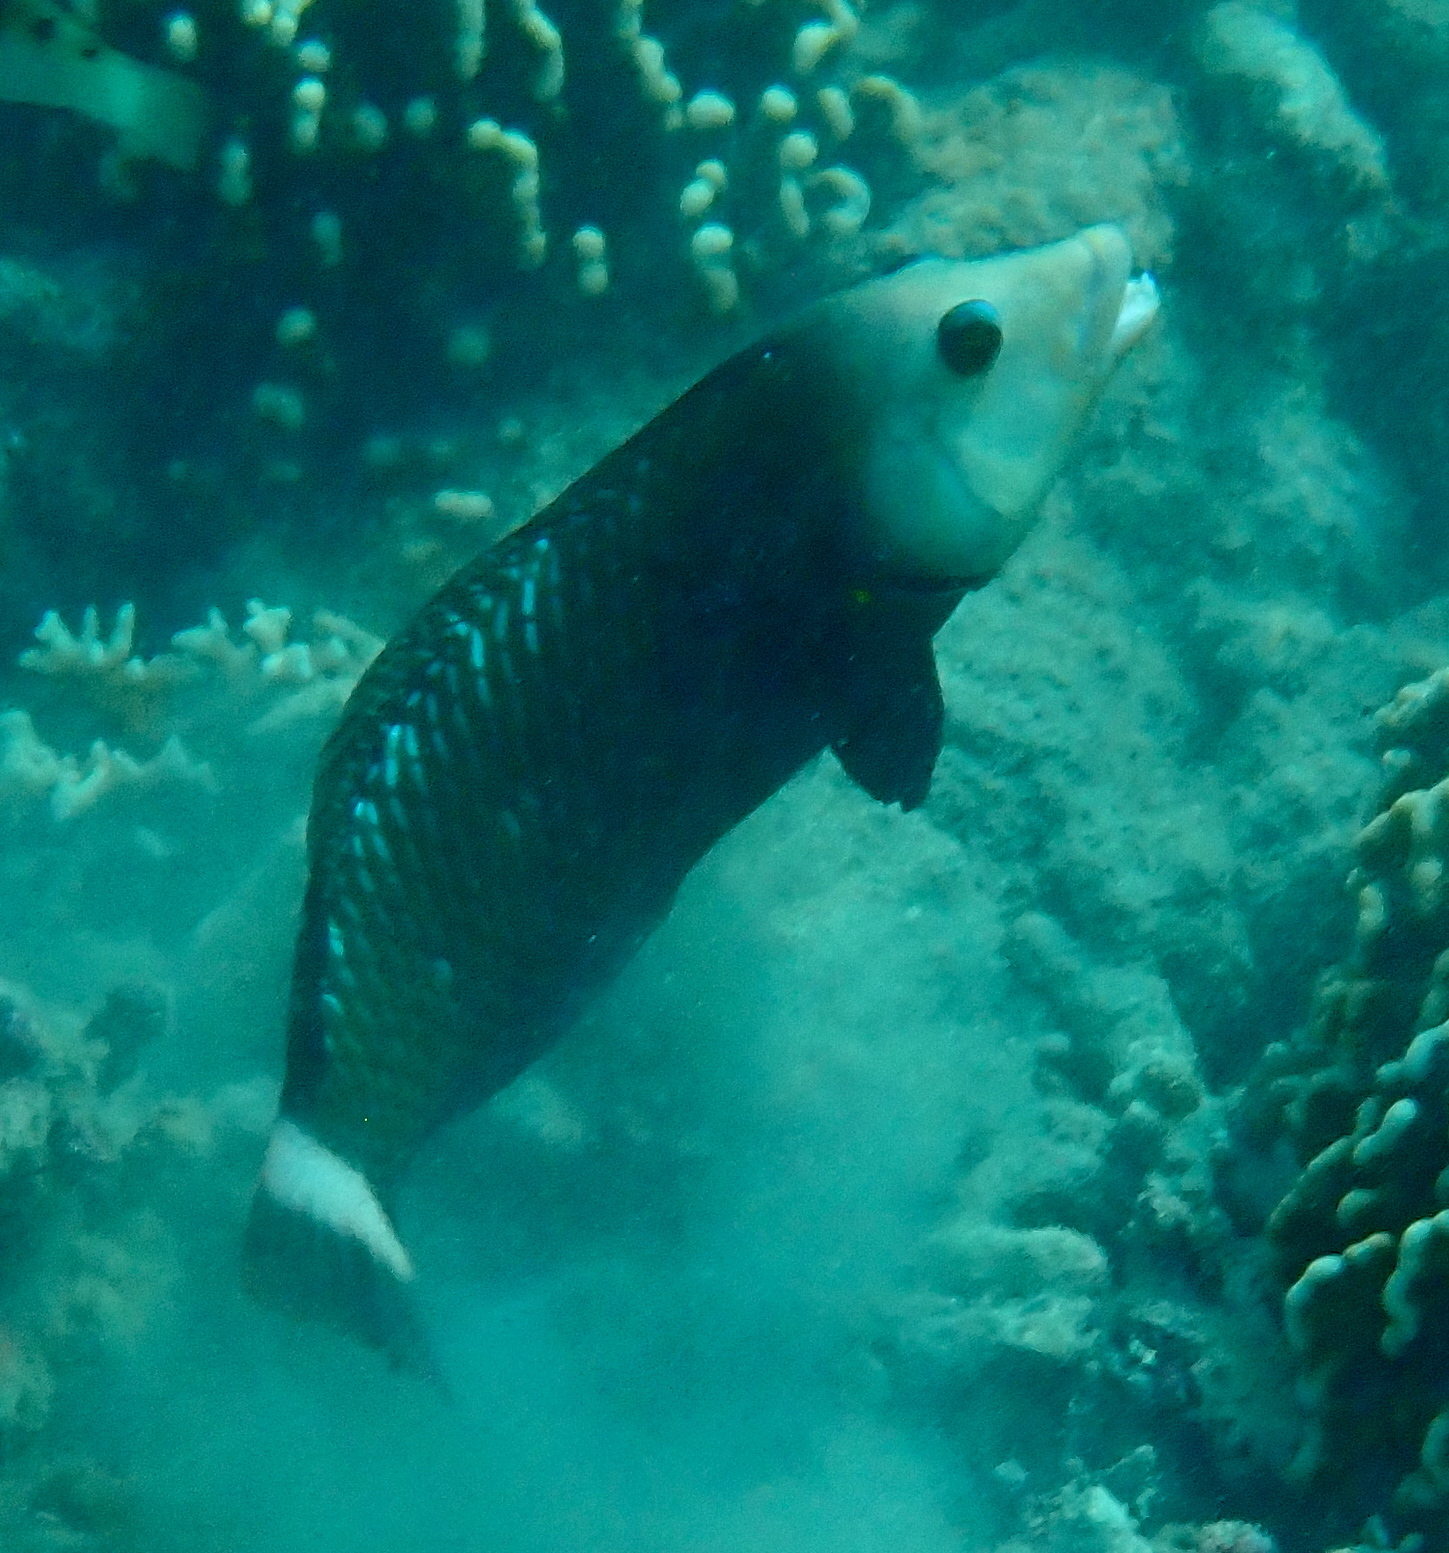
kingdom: Animalia
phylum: Chordata
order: Perciformes
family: Labridae
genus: Novaculichthys
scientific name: Novaculichthys taeniourus
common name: Rockmover wrasse
